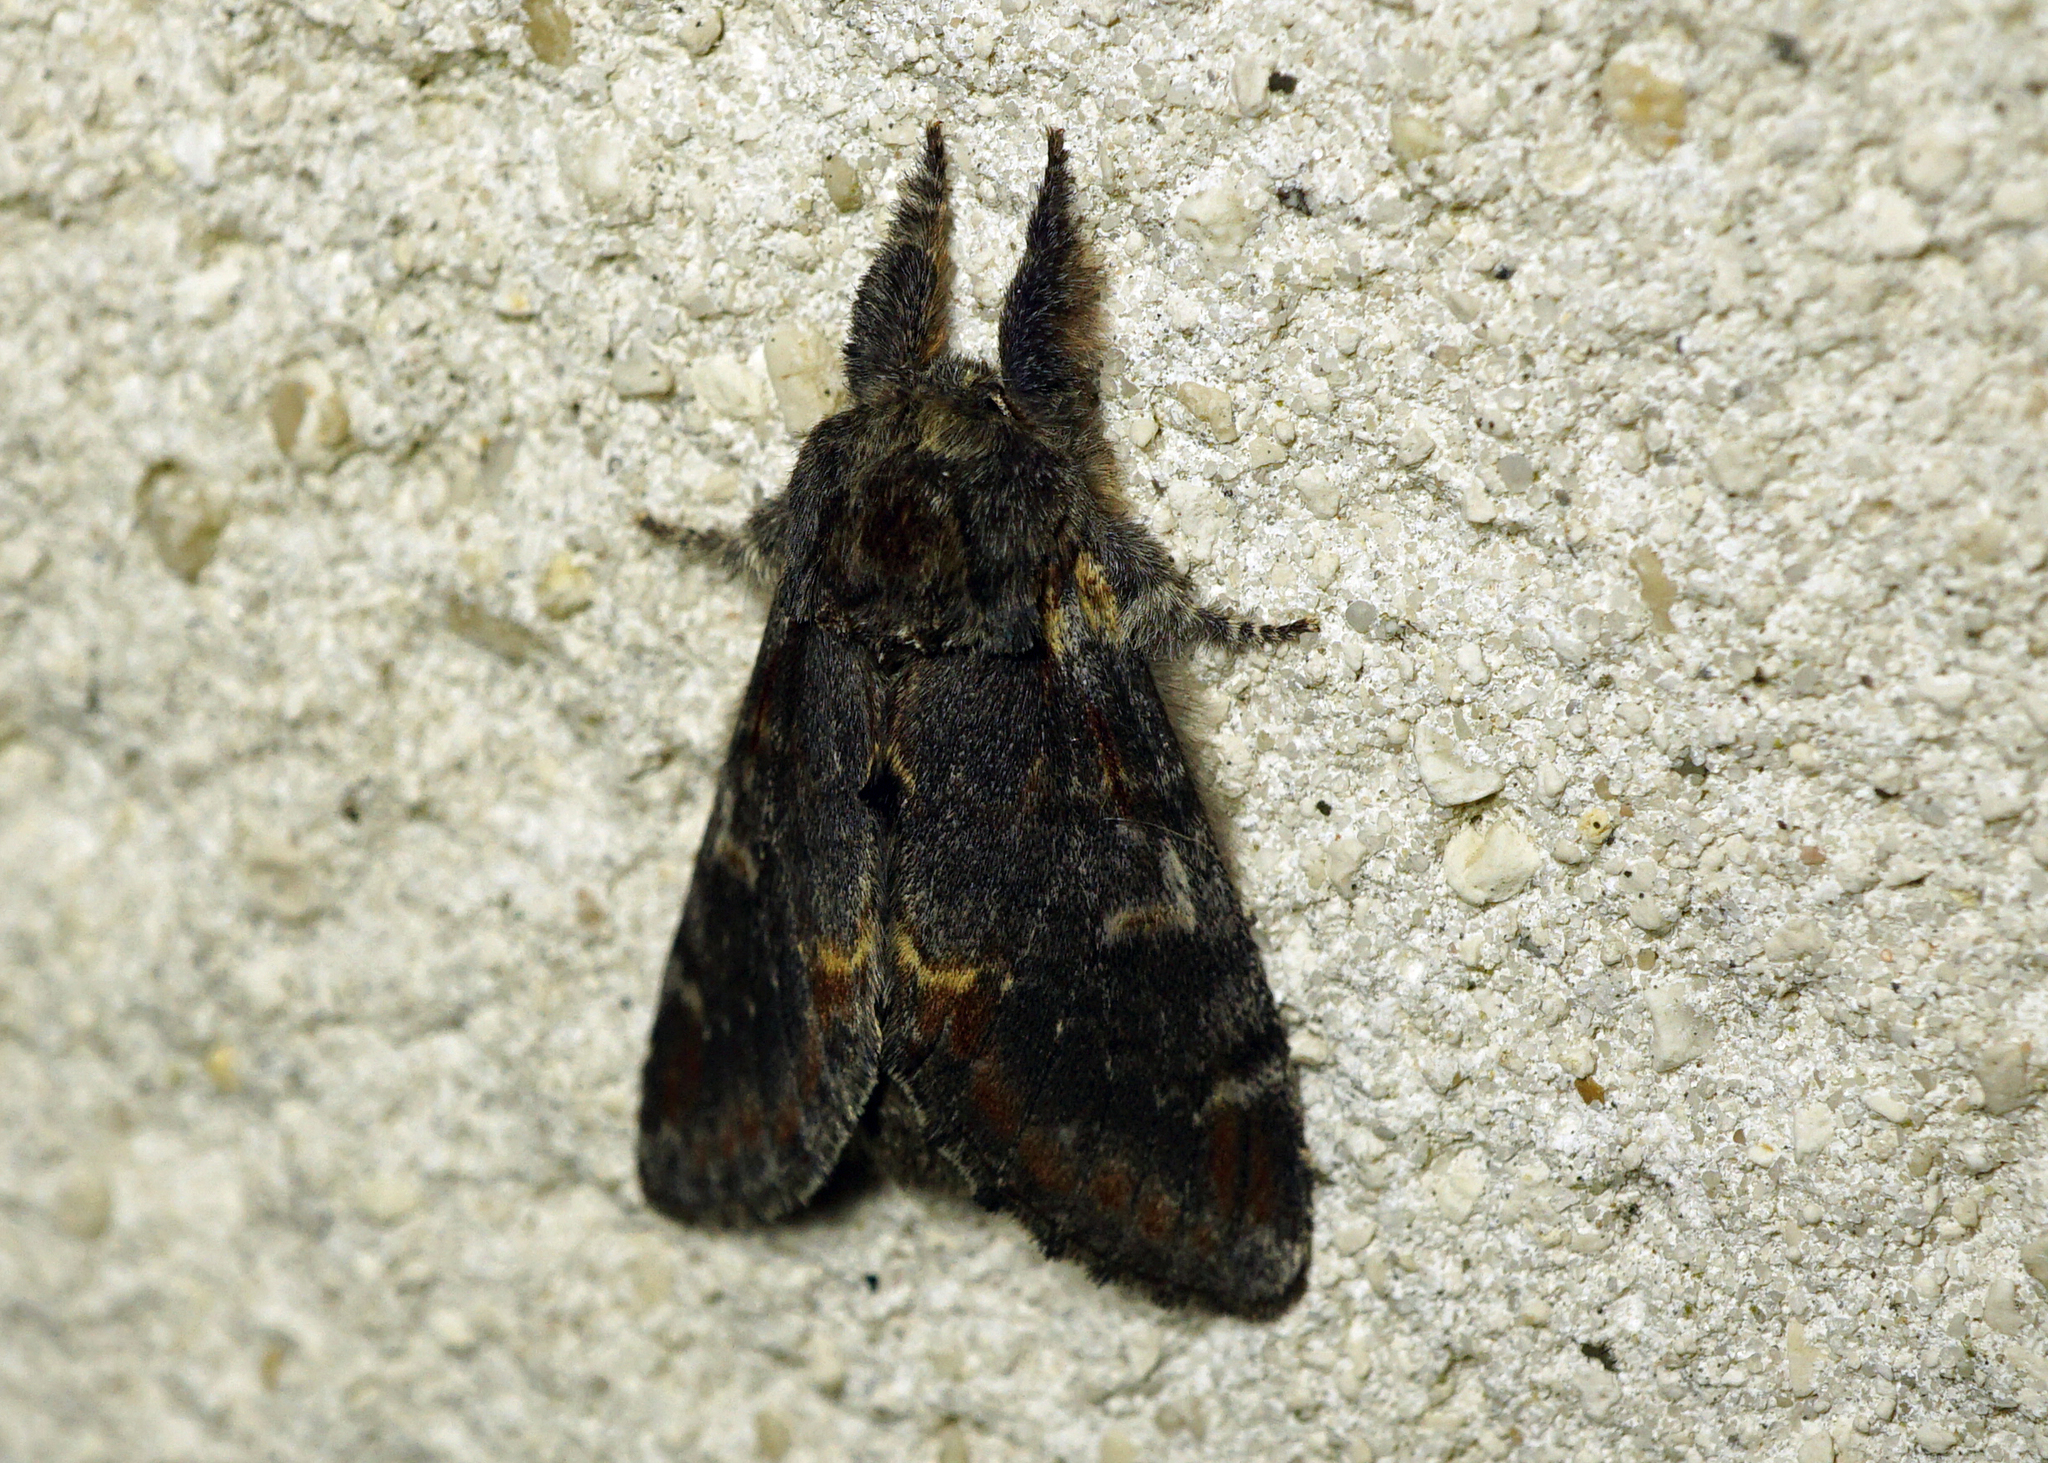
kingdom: Animalia
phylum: Arthropoda
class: Insecta
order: Lepidoptera
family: Notodontidae
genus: Notodonta
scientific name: Notodonta dromedarius
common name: Iron prominent
